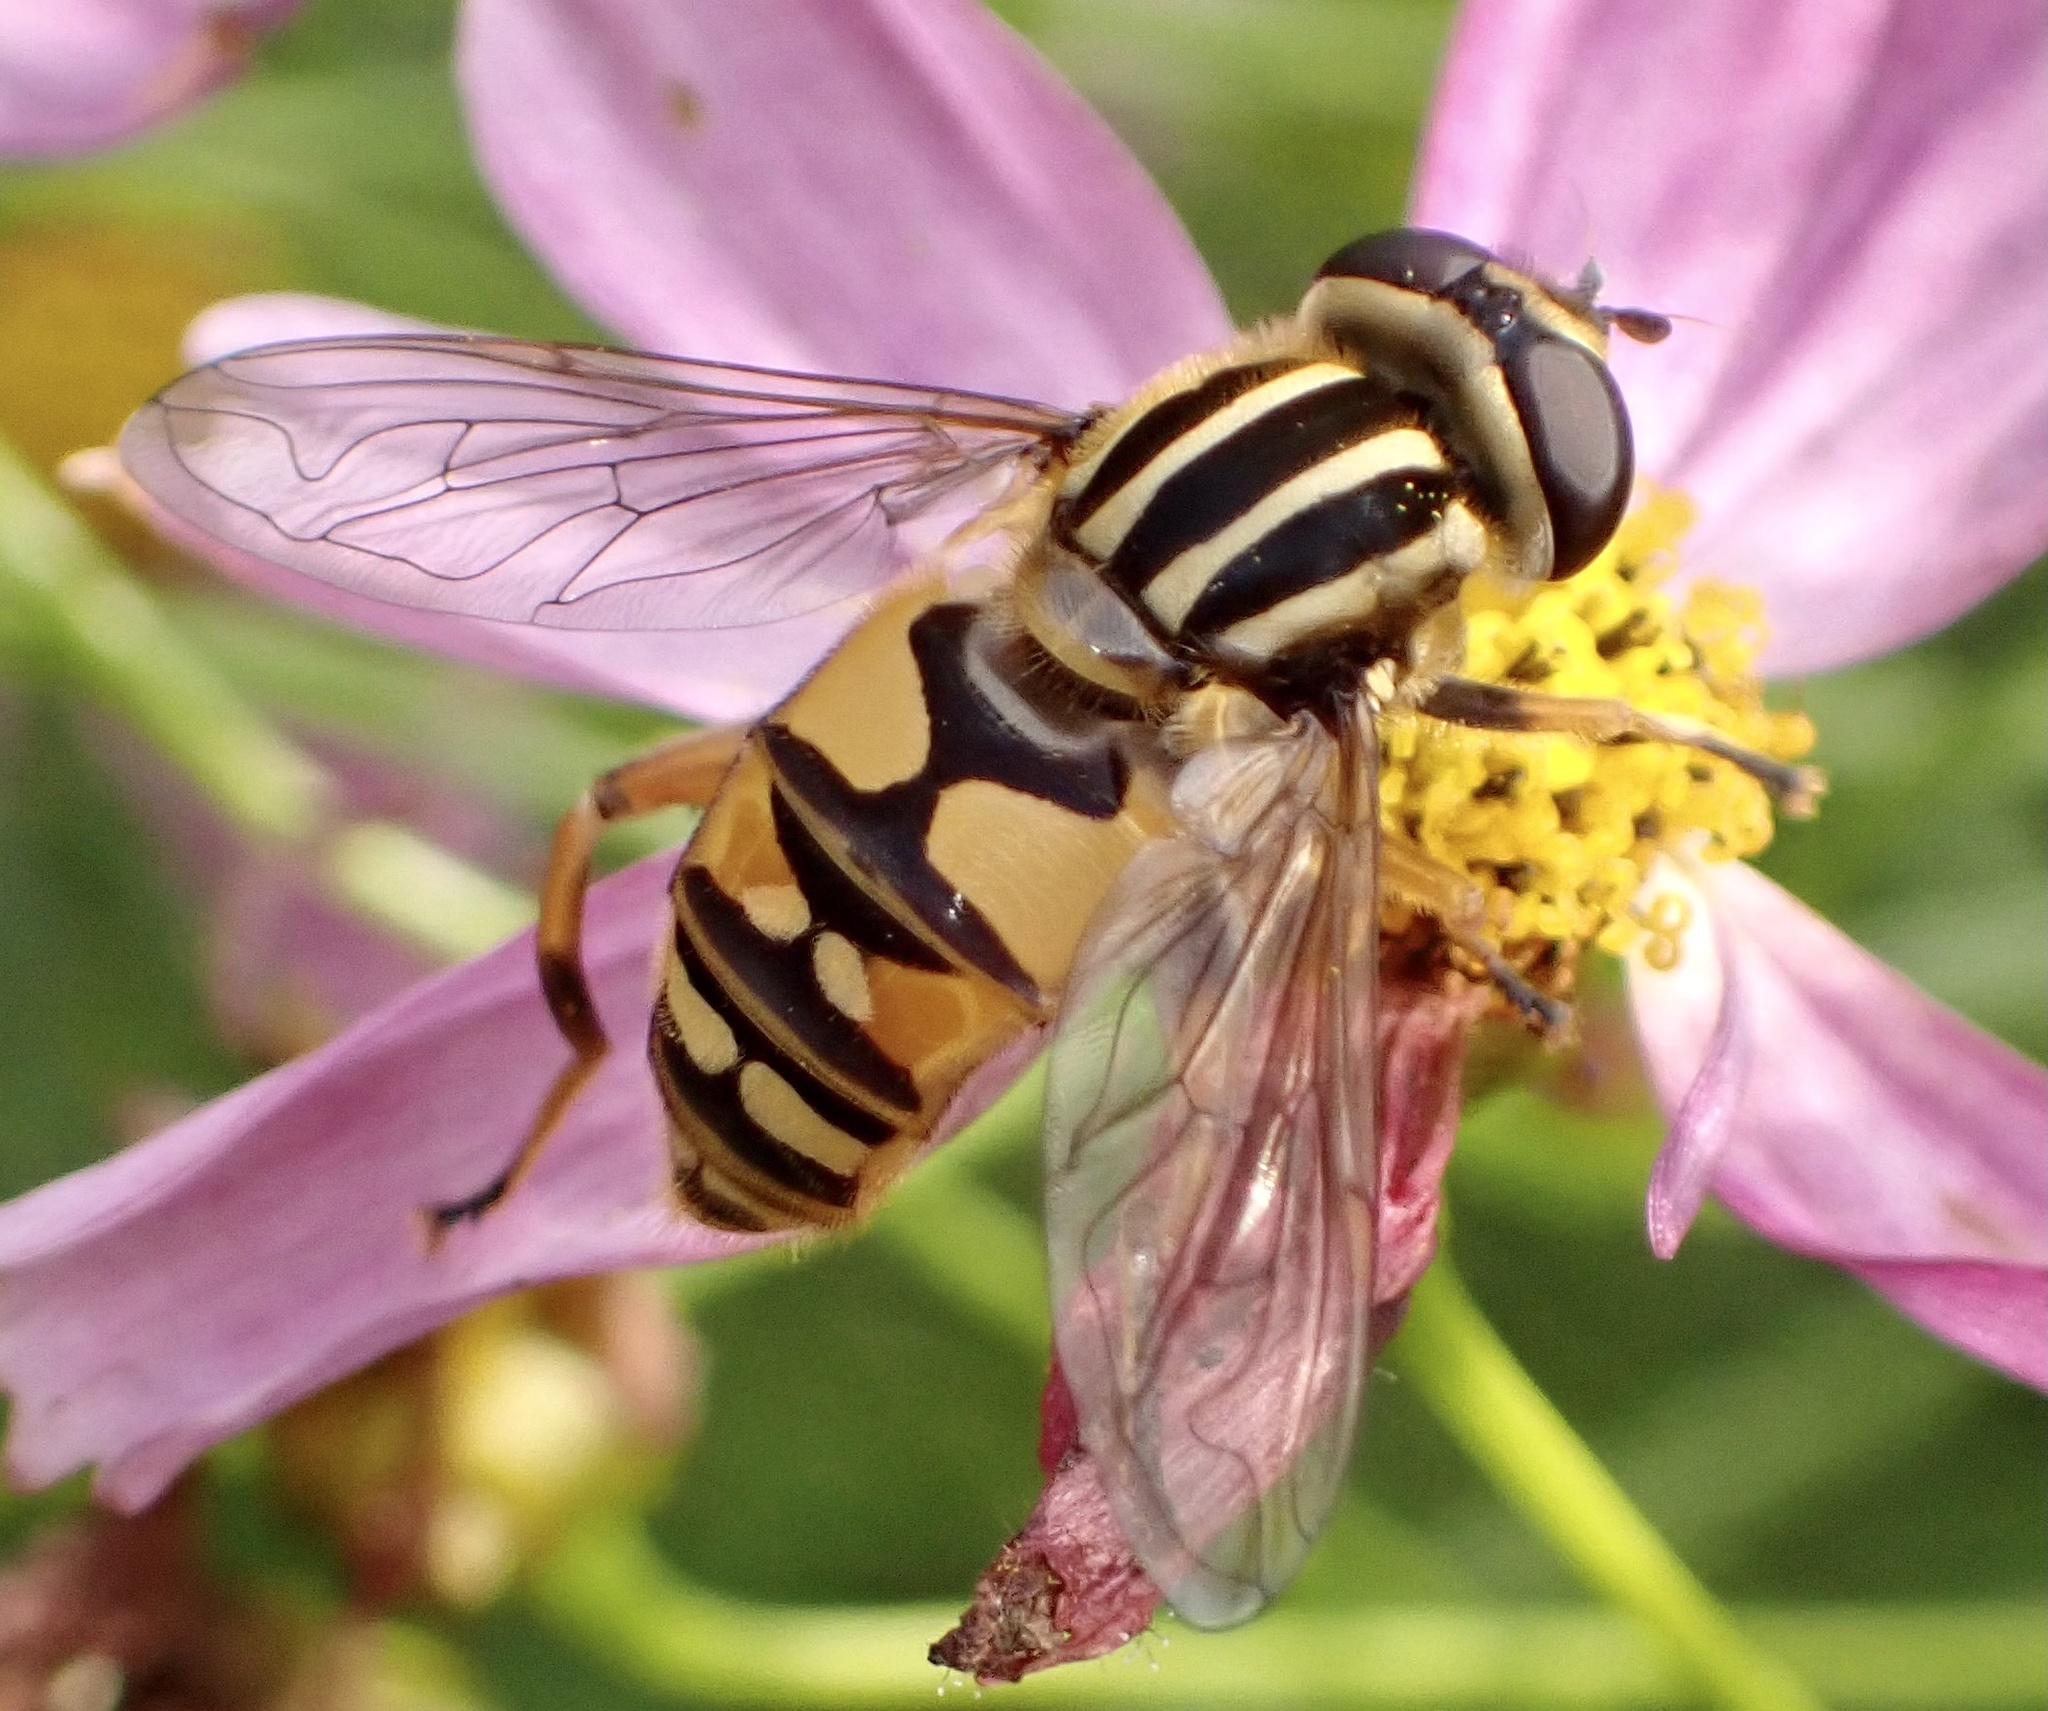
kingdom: Animalia
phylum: Arthropoda
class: Insecta
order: Diptera
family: Syrphidae
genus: Helophilus
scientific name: Helophilus pendulus
